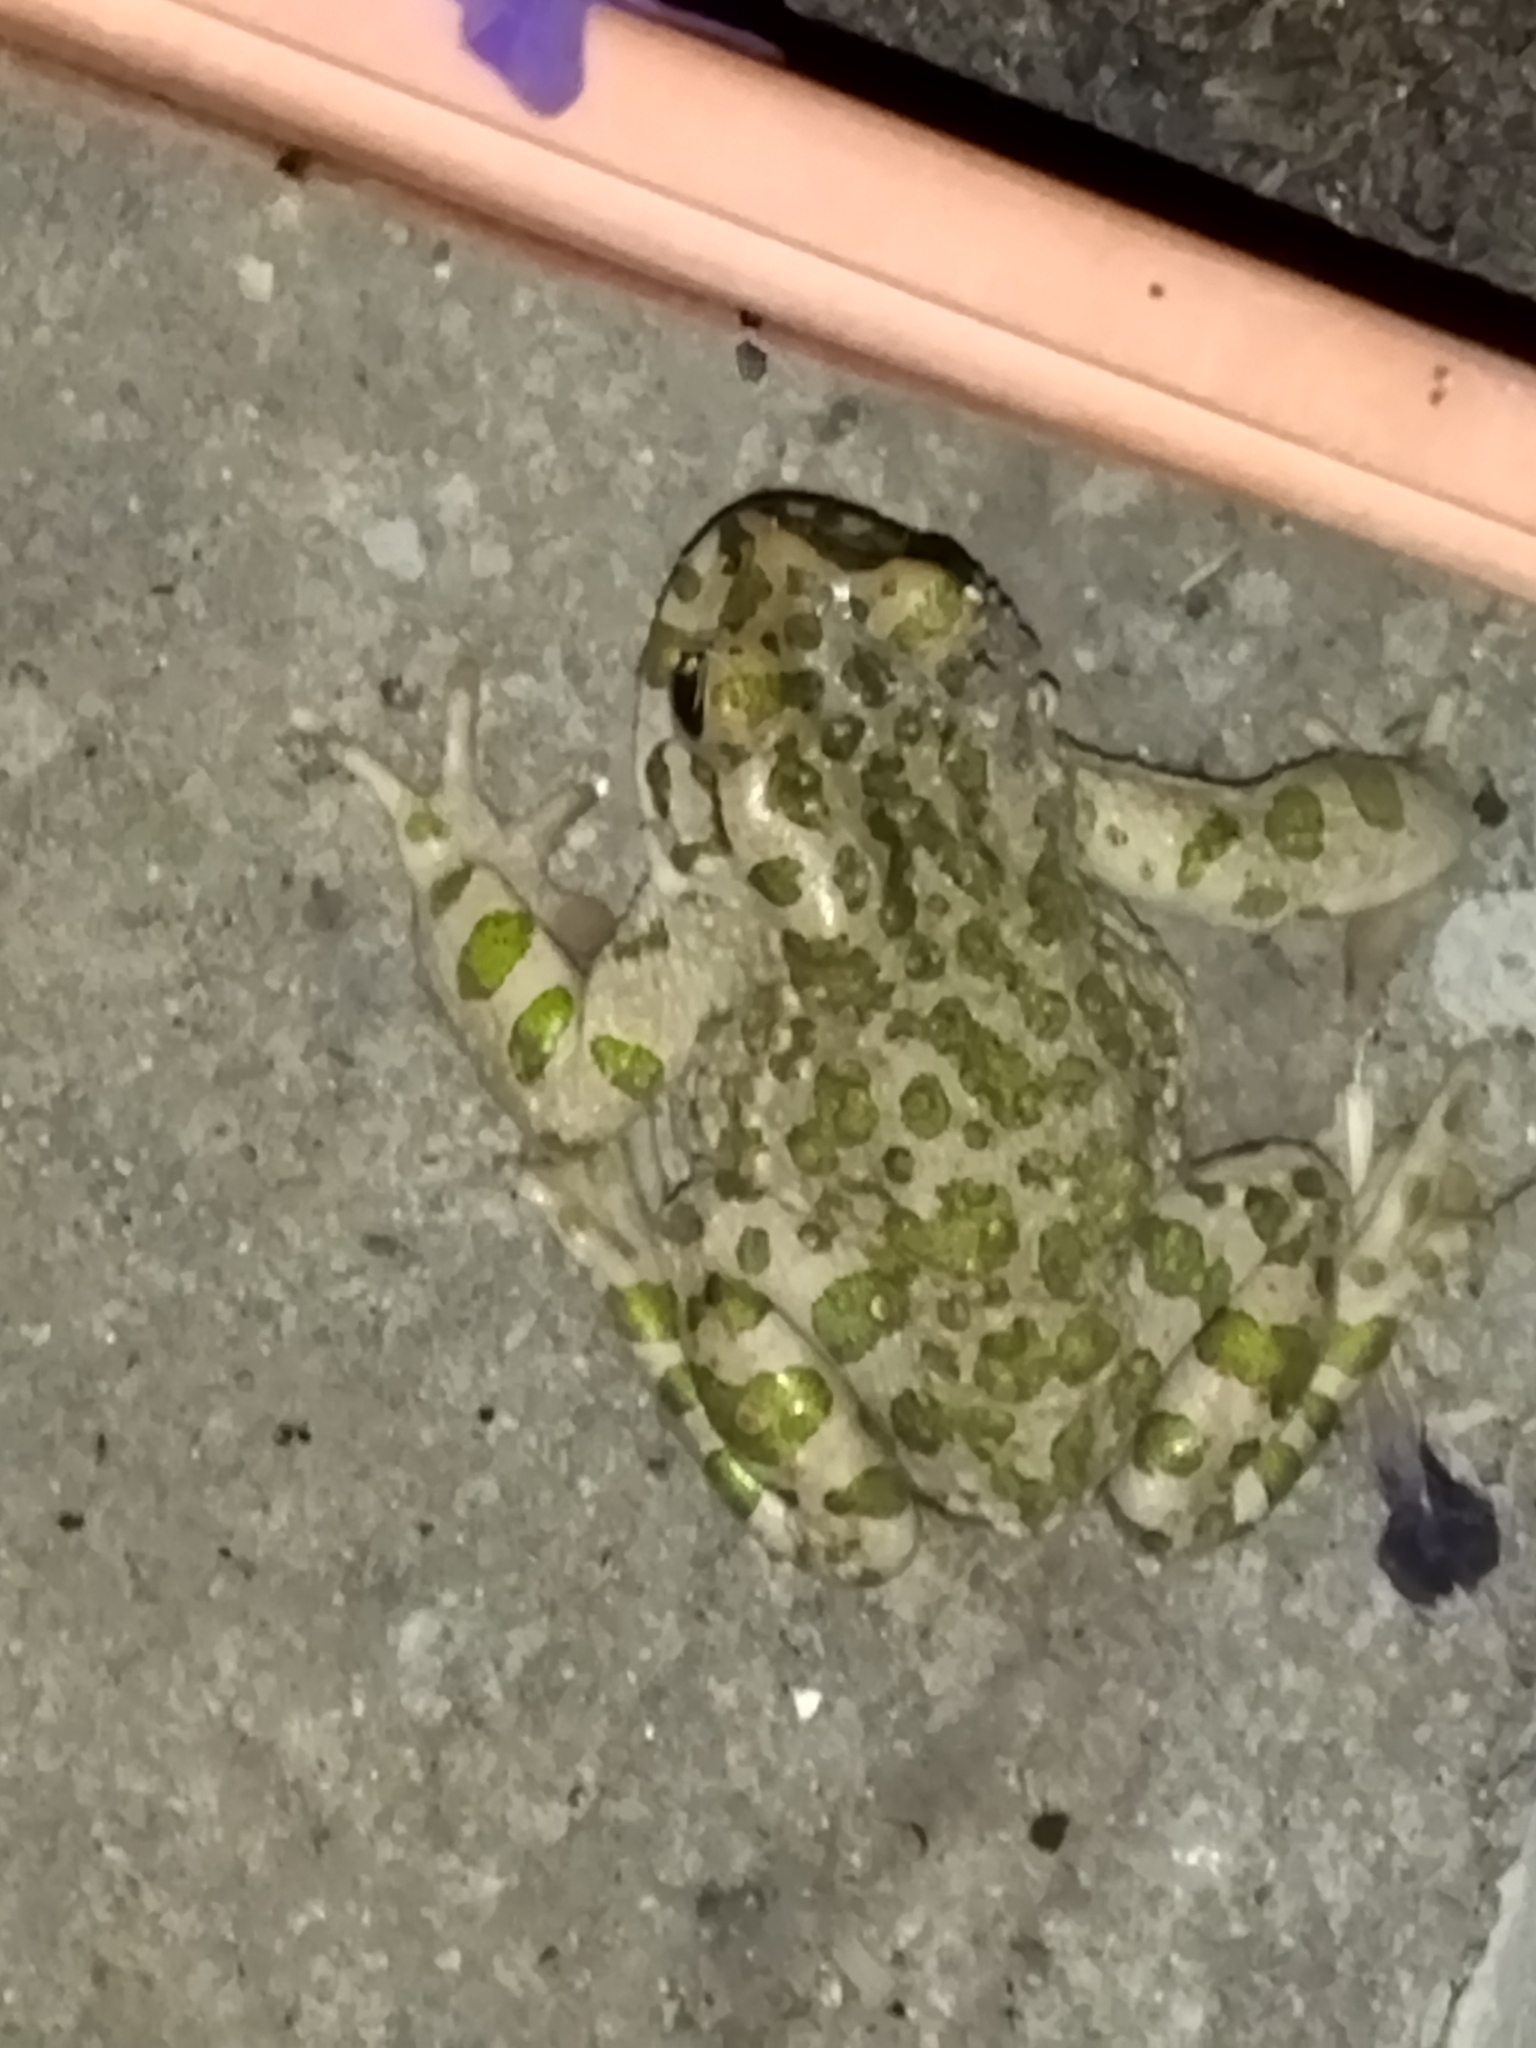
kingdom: Animalia
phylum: Chordata
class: Amphibia
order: Anura
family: Bufonidae
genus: Bufotes
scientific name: Bufotes viridis
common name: European green toad
